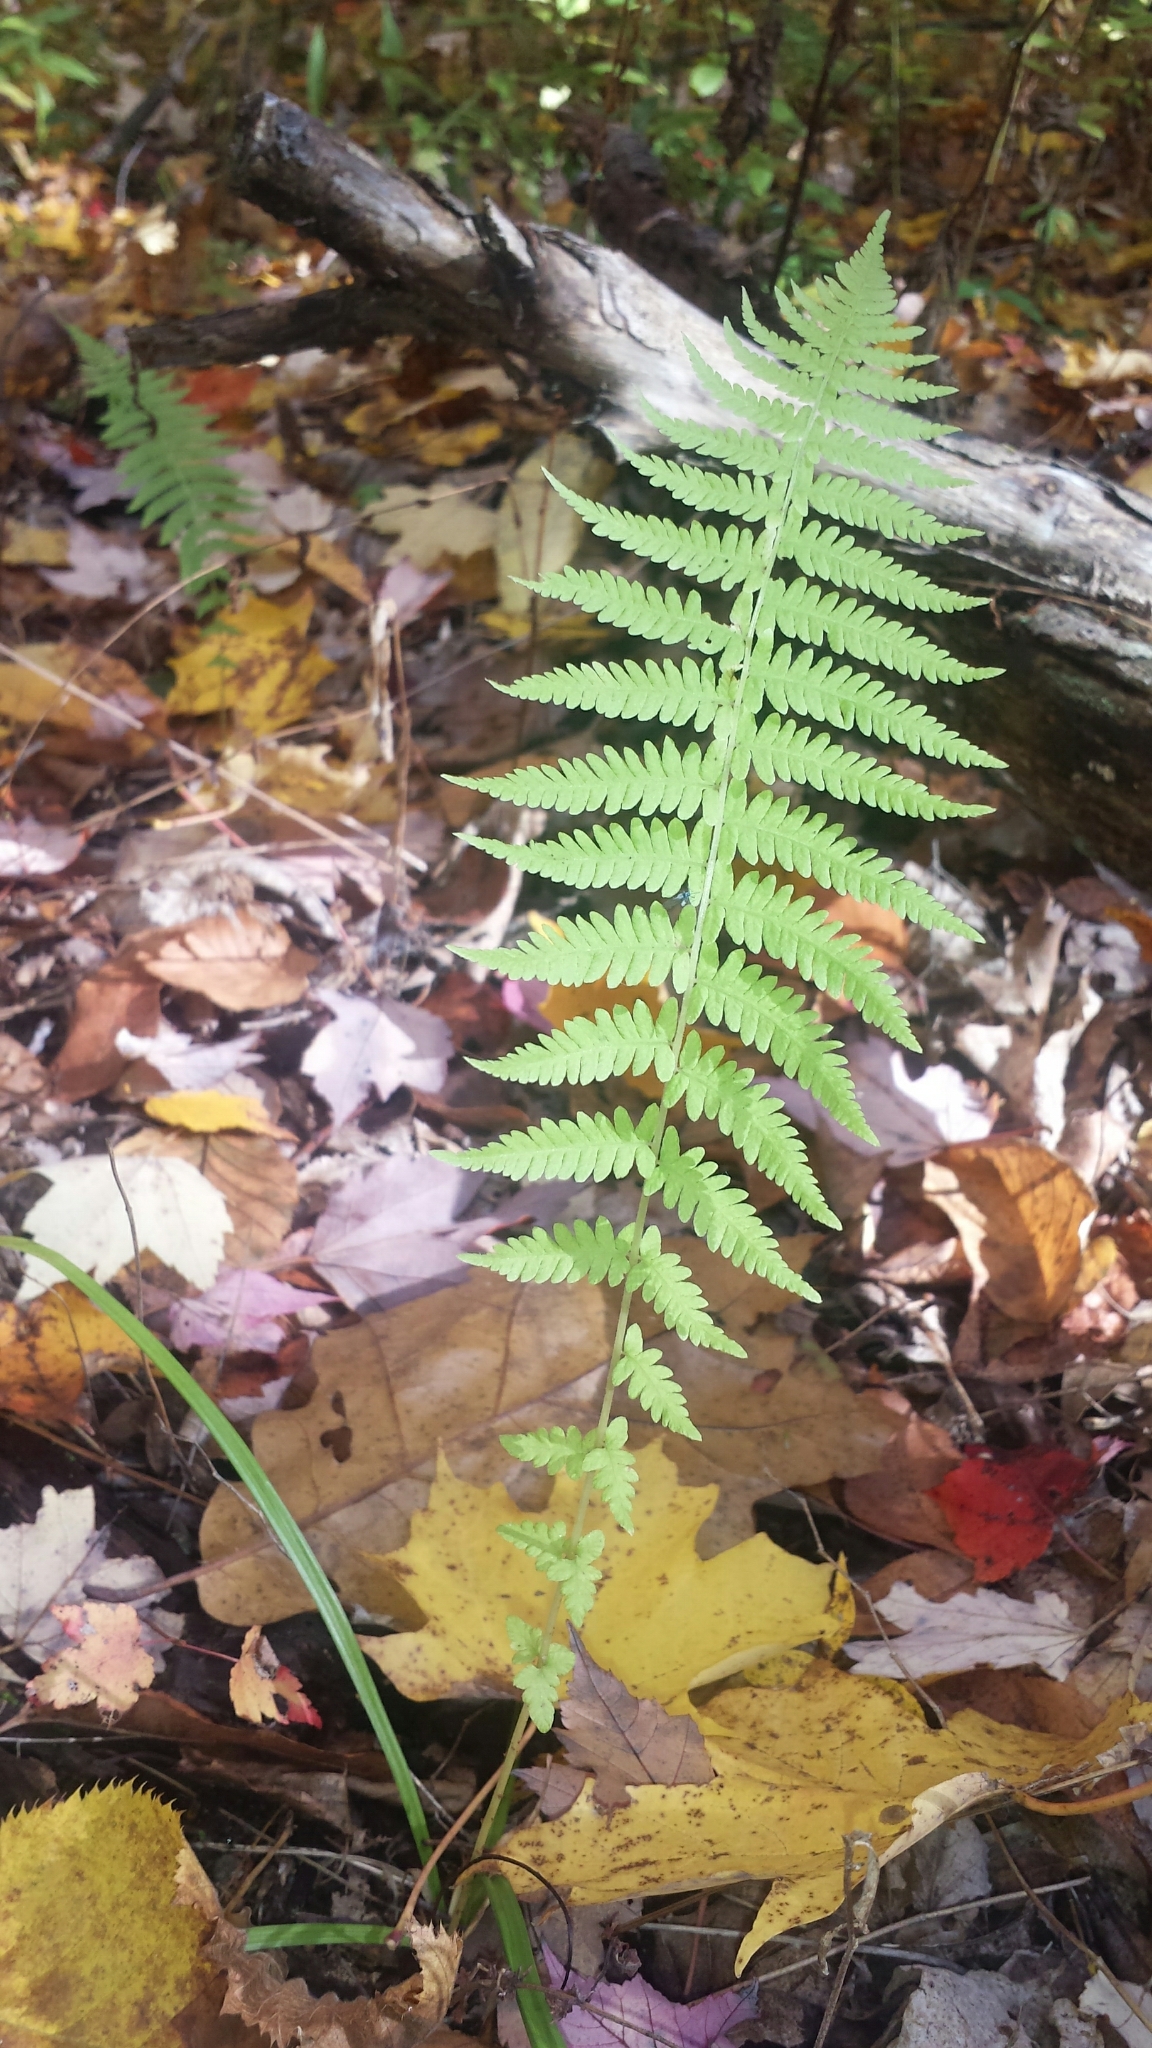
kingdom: Plantae
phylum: Tracheophyta
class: Polypodiopsida
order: Polypodiales
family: Thelypteridaceae
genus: Amauropelta
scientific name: Amauropelta noveboracensis
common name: New york fern
